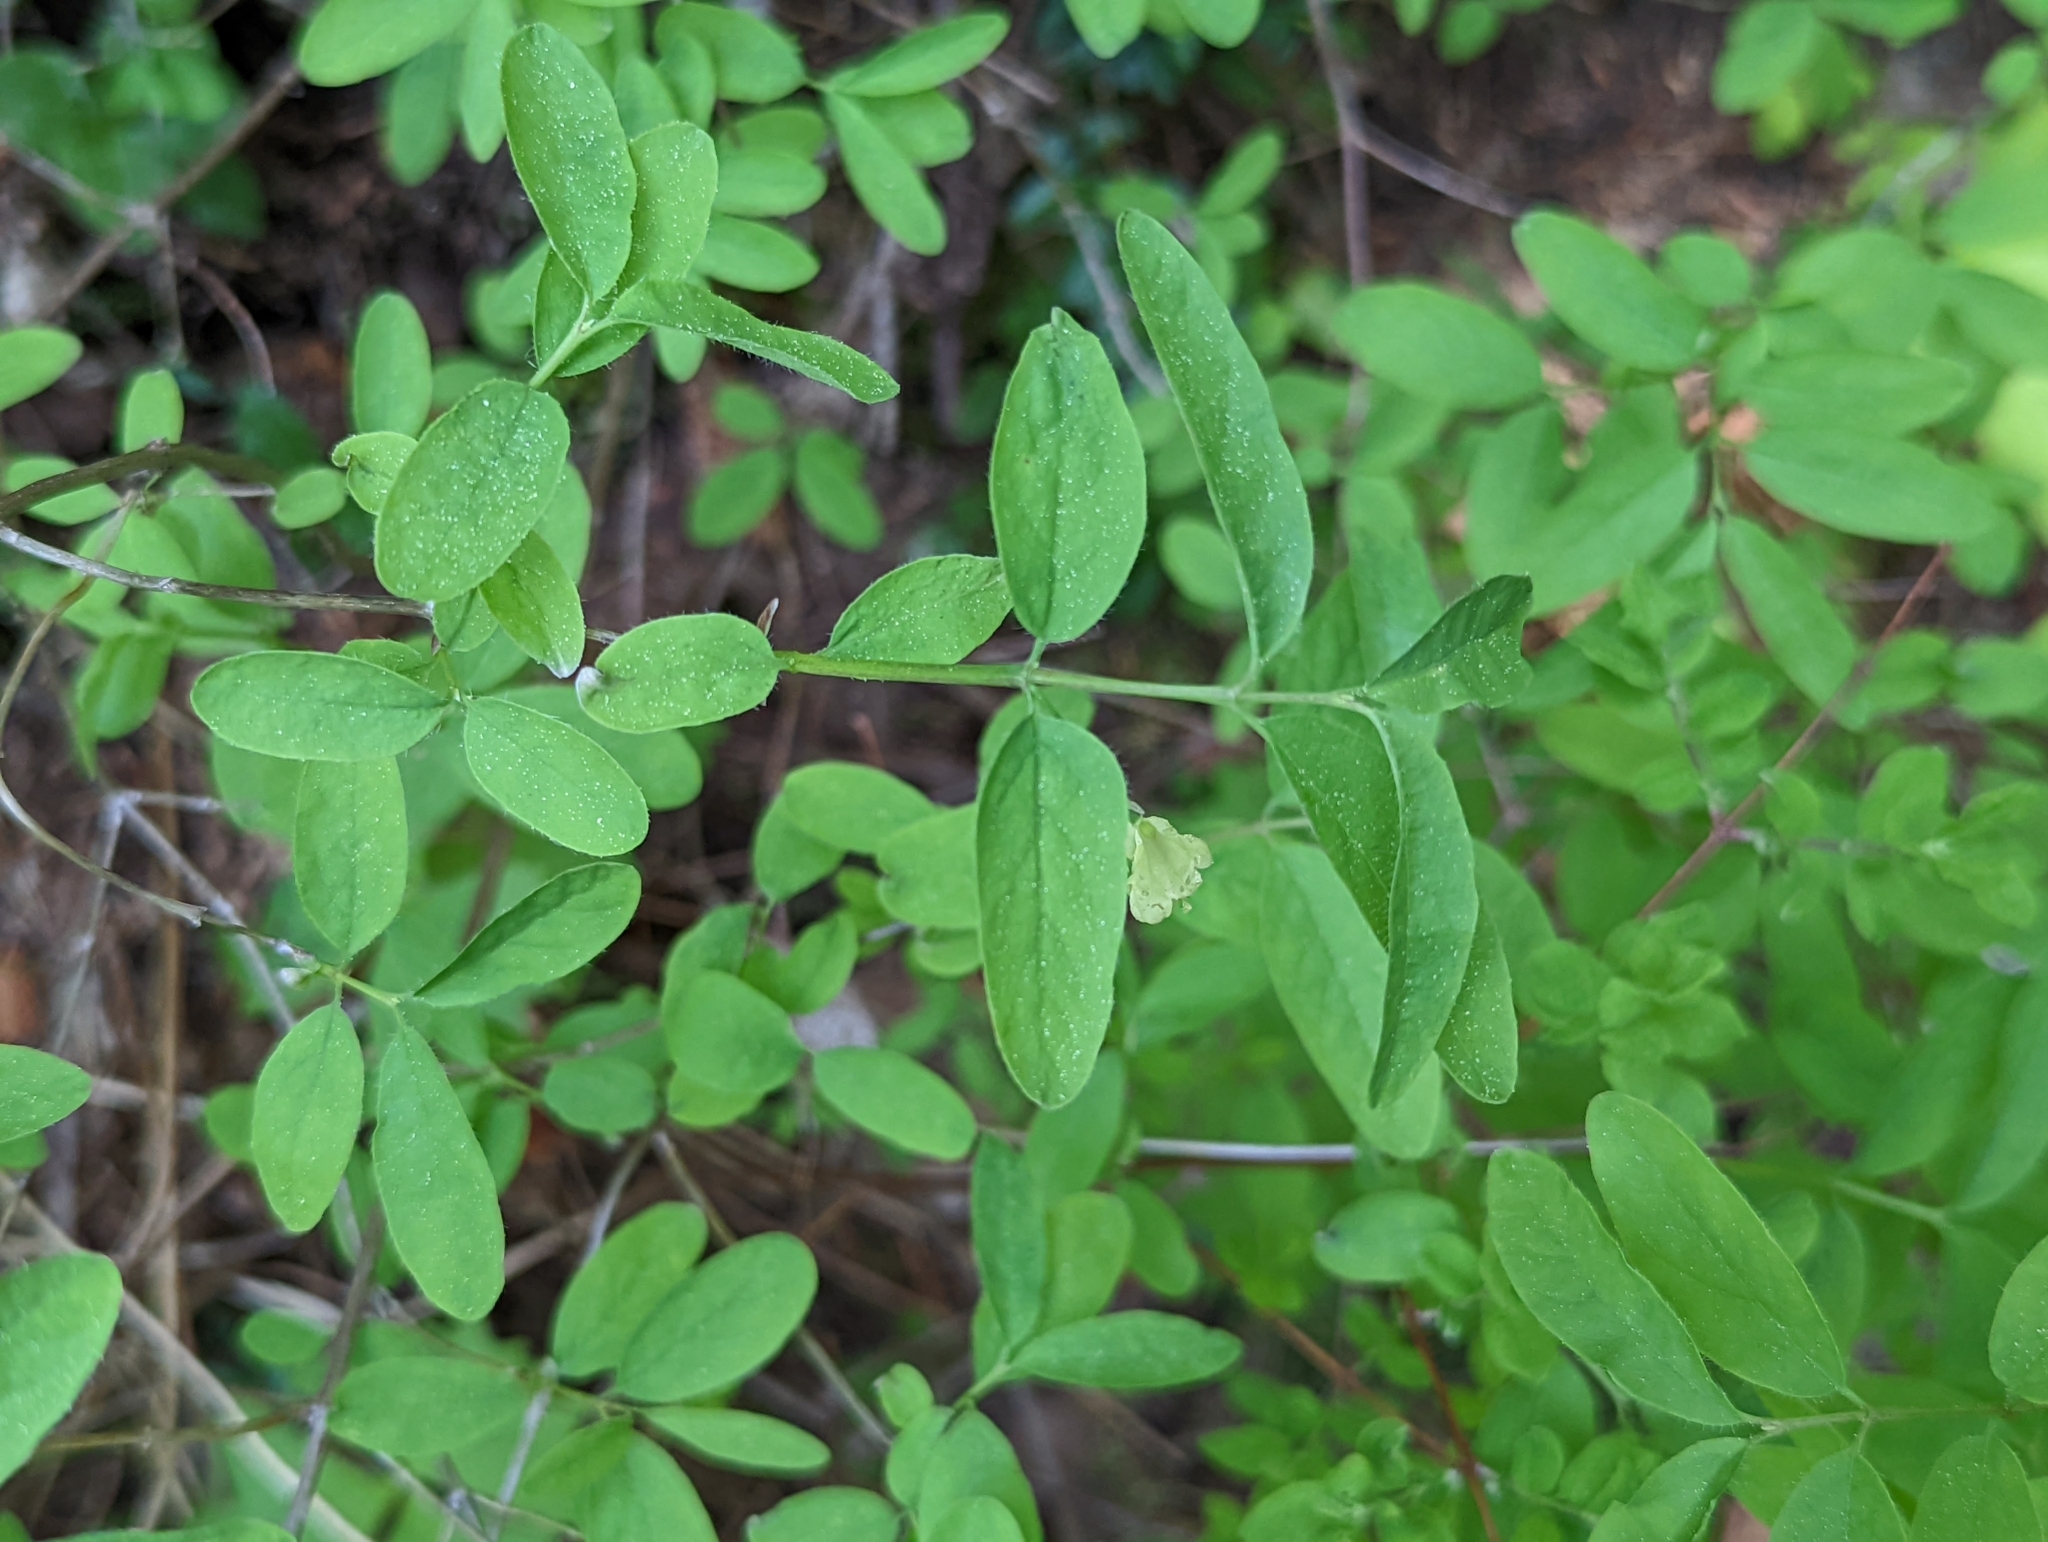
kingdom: Plantae
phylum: Tracheophyta
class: Magnoliopsida
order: Dipsacales
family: Caprifoliaceae
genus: Lonicera
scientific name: Lonicera utahensis
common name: Utah honeysuckle
